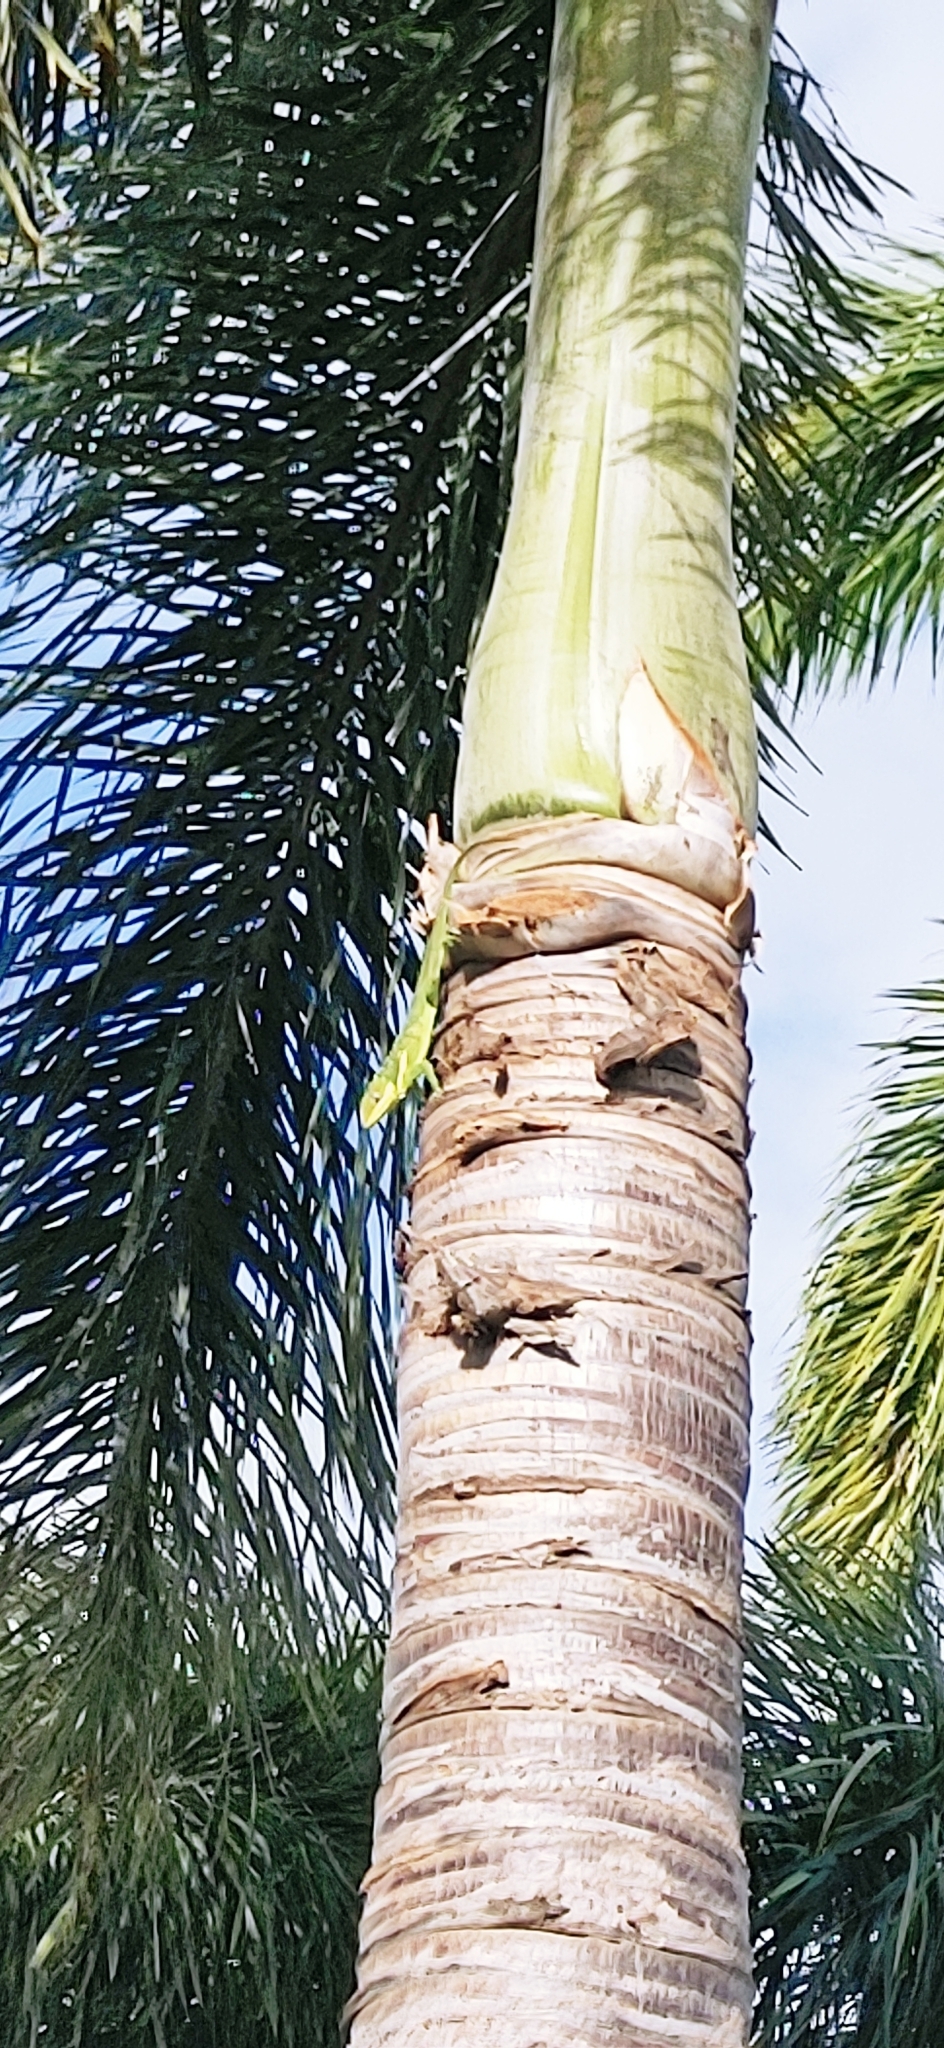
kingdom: Animalia
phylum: Chordata
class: Squamata
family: Dactyloidae
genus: Anolis
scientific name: Anolis equestris
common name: Knight anole
